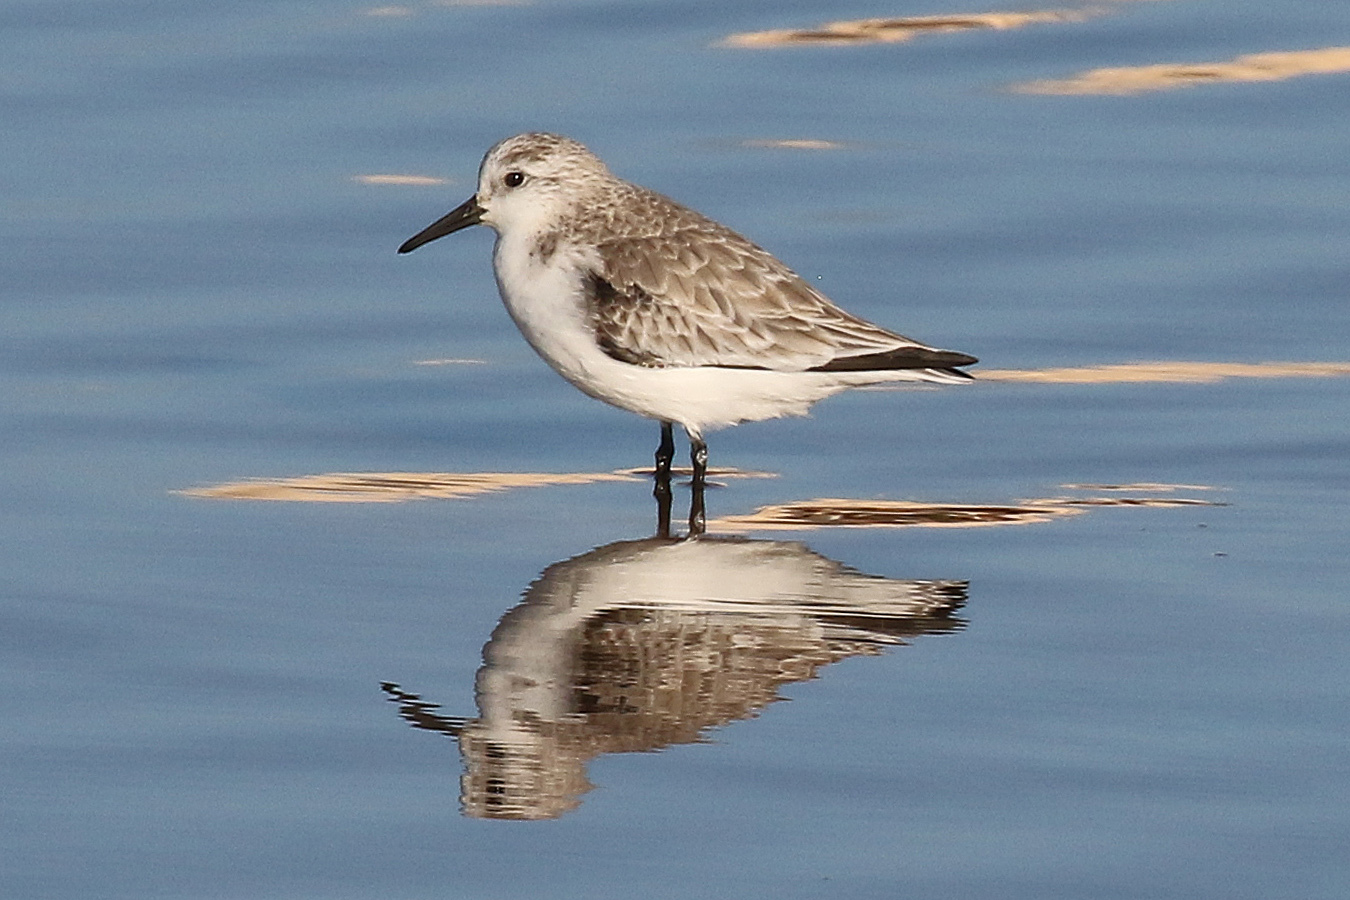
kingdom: Animalia
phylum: Chordata
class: Aves
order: Charadriiformes
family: Scolopacidae
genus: Calidris
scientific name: Calidris alba
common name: Sanderling
